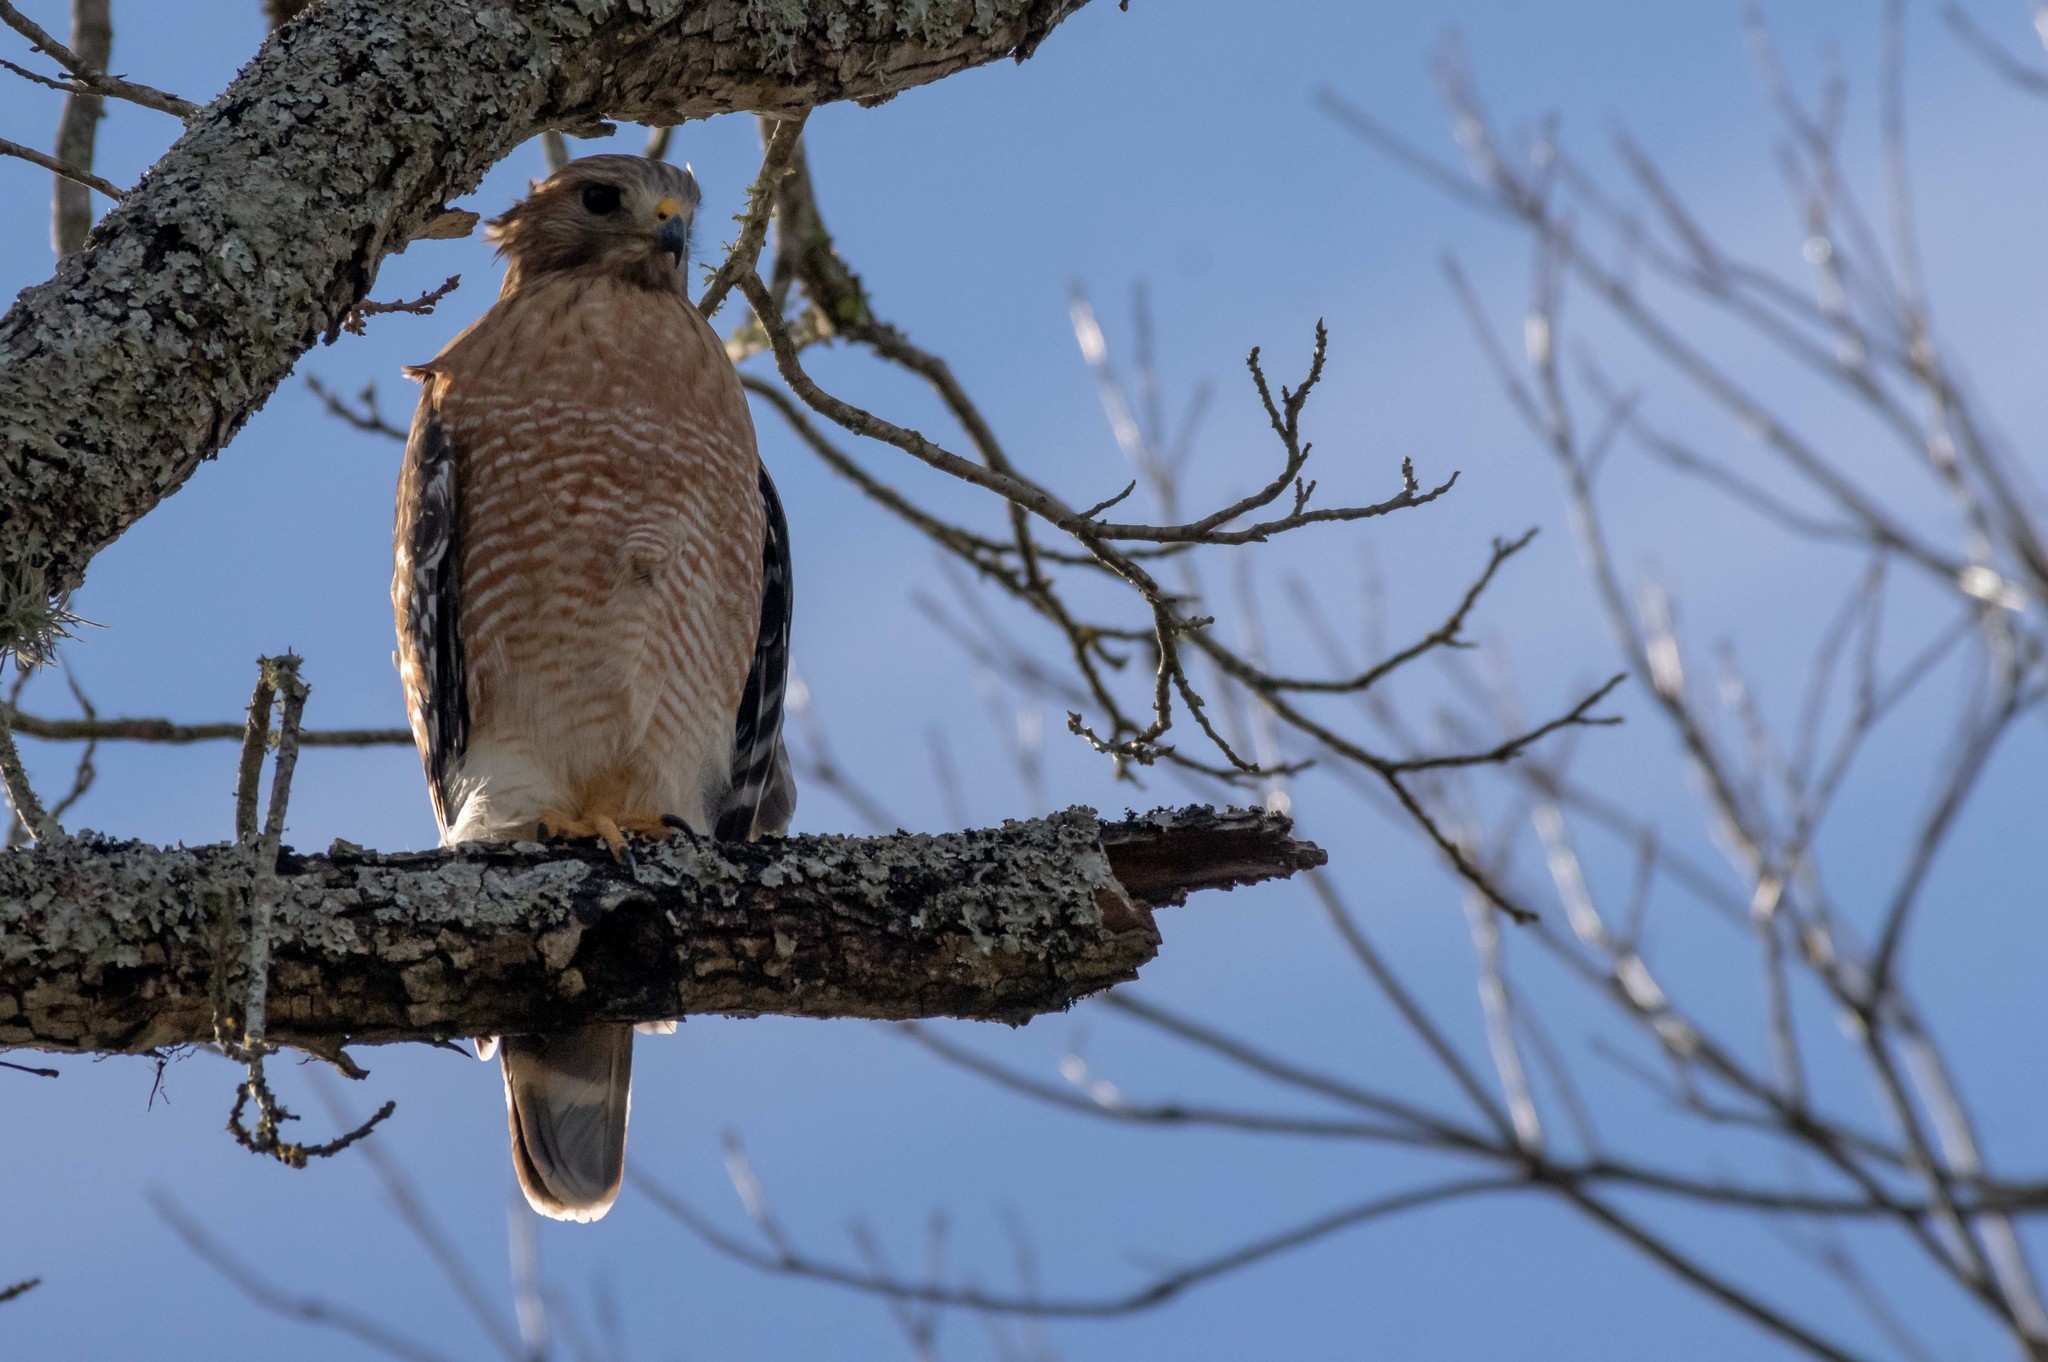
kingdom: Animalia
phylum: Chordata
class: Aves
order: Accipitriformes
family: Accipitridae
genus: Buteo
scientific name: Buteo lineatus
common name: Red-shouldered hawk
